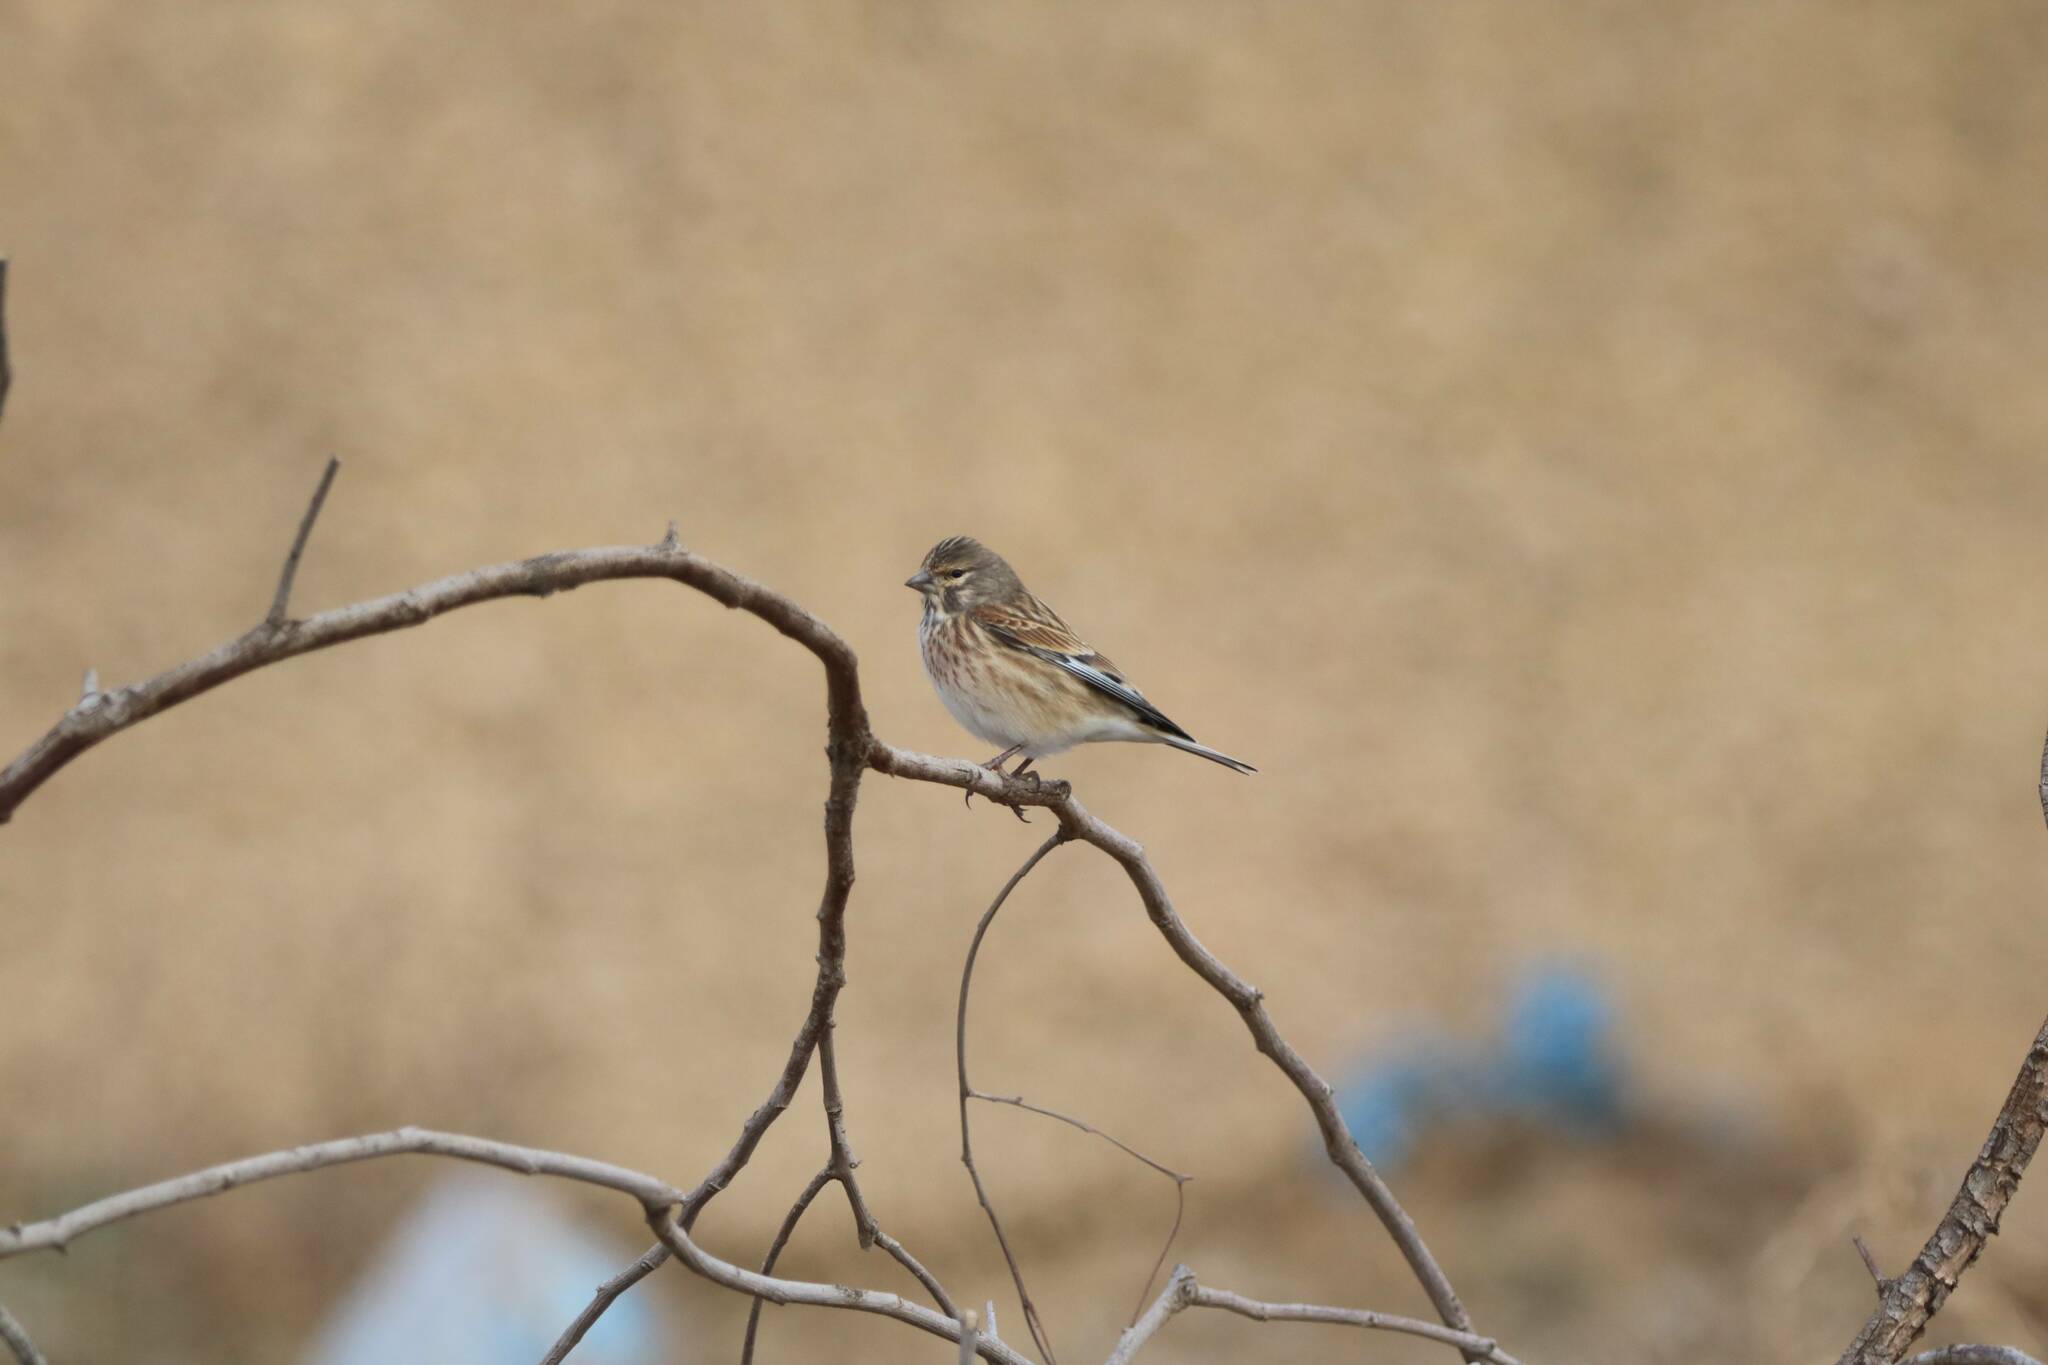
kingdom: Animalia
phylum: Chordata
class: Aves
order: Passeriformes
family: Fringillidae
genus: Linaria
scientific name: Linaria cannabina
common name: Common linnet
